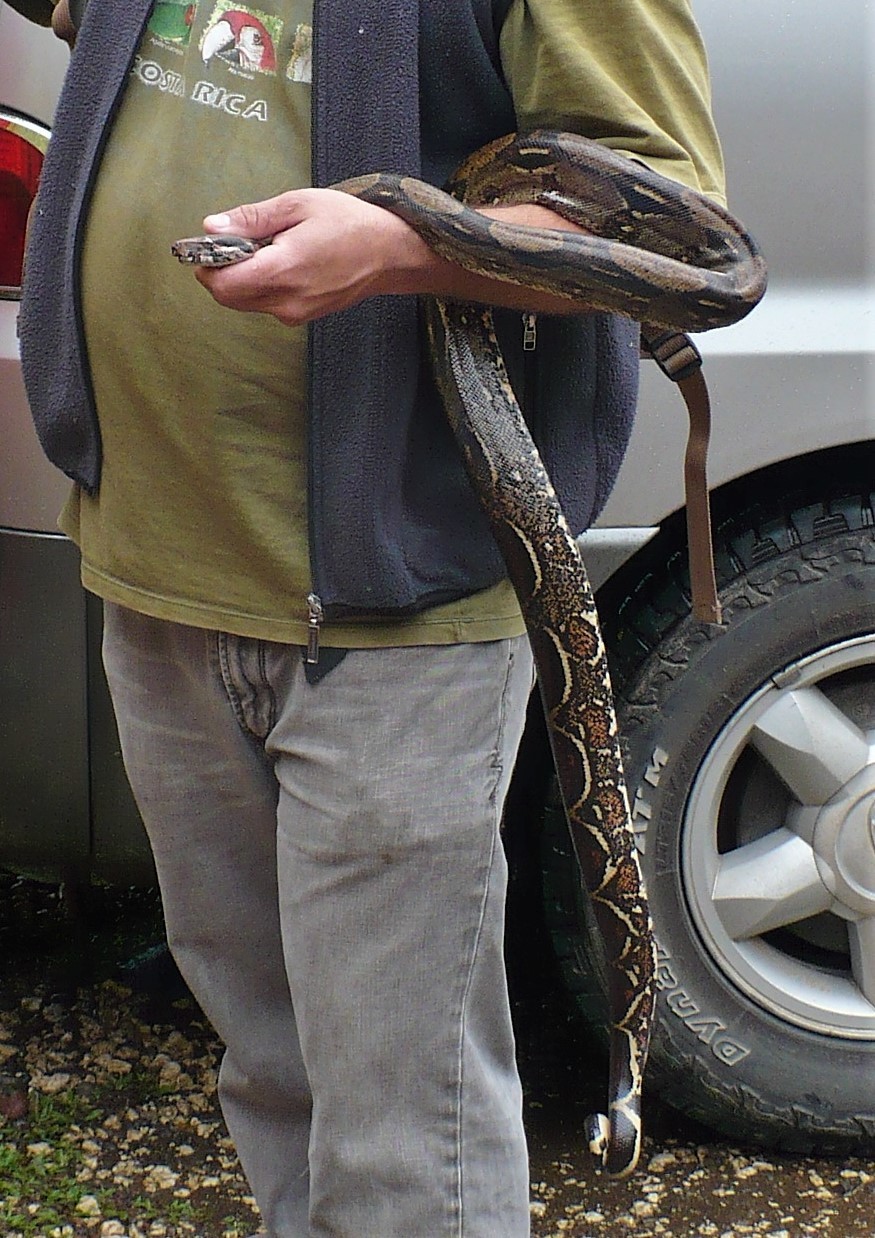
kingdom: Animalia
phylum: Chordata
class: Squamata
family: Boidae
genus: Boa
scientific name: Boa imperator
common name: Central american boa
